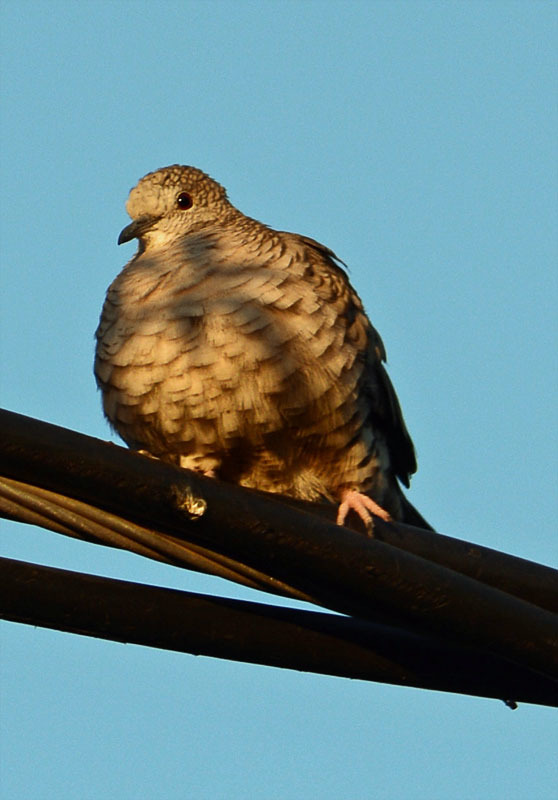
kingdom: Animalia
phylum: Chordata
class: Aves
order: Columbiformes
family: Columbidae
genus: Columbina
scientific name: Columbina inca
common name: Inca dove
